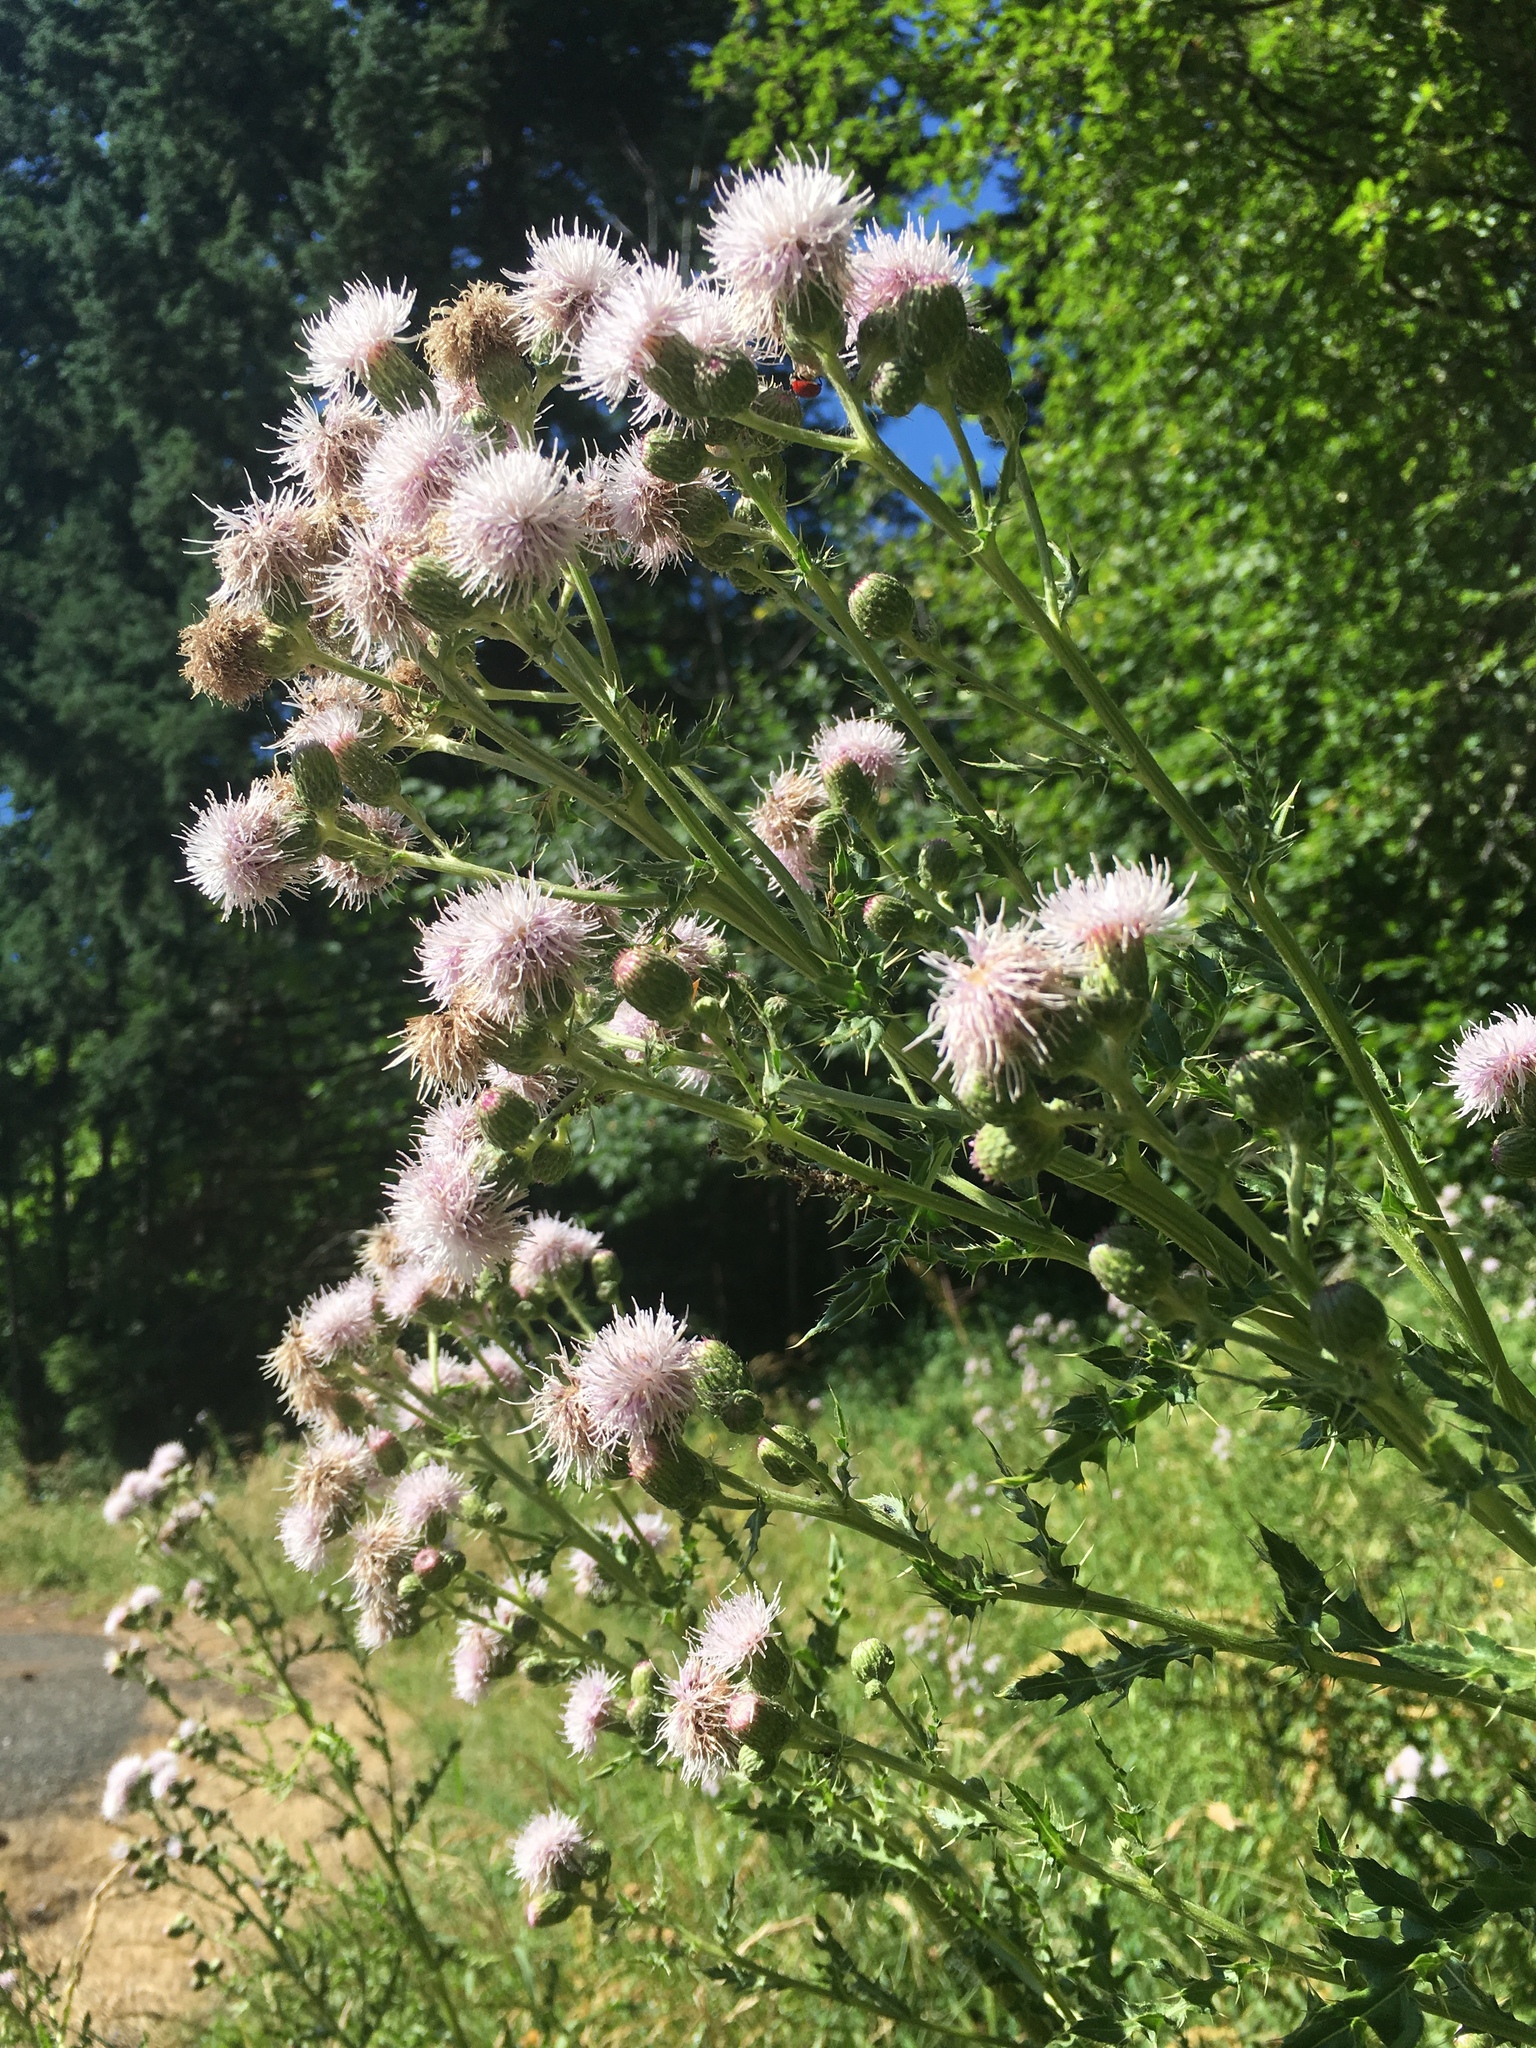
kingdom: Plantae
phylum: Tracheophyta
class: Magnoliopsida
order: Asterales
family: Asteraceae
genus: Cirsium
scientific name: Cirsium arvense
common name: Creeping thistle
